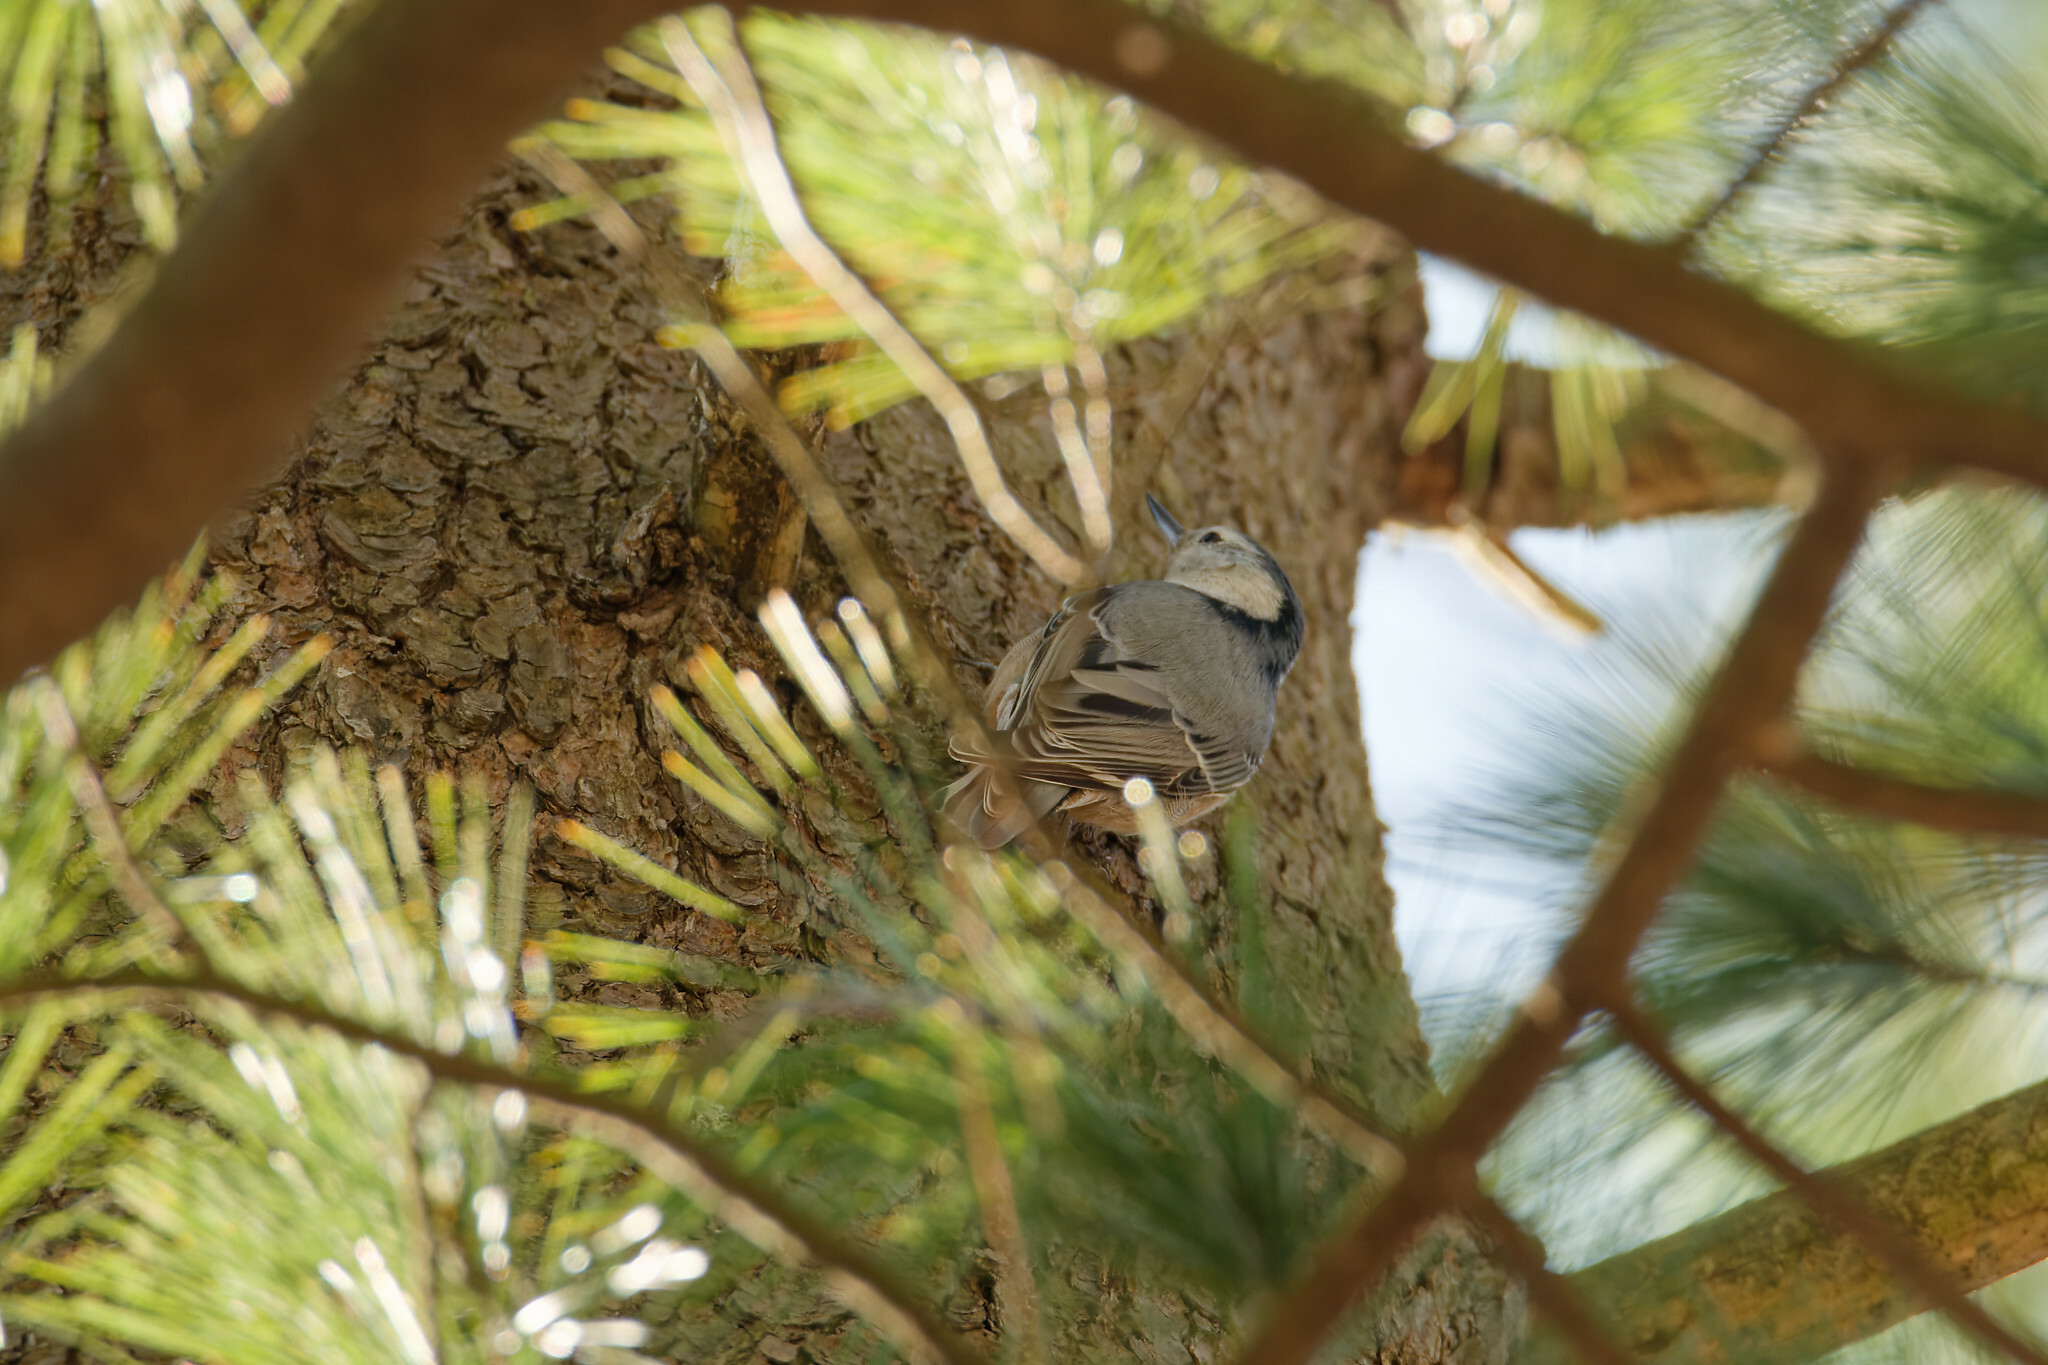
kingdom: Animalia
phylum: Chordata
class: Aves
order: Passeriformes
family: Sittidae
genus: Sitta
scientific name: Sitta carolinensis
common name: White-breasted nuthatch
